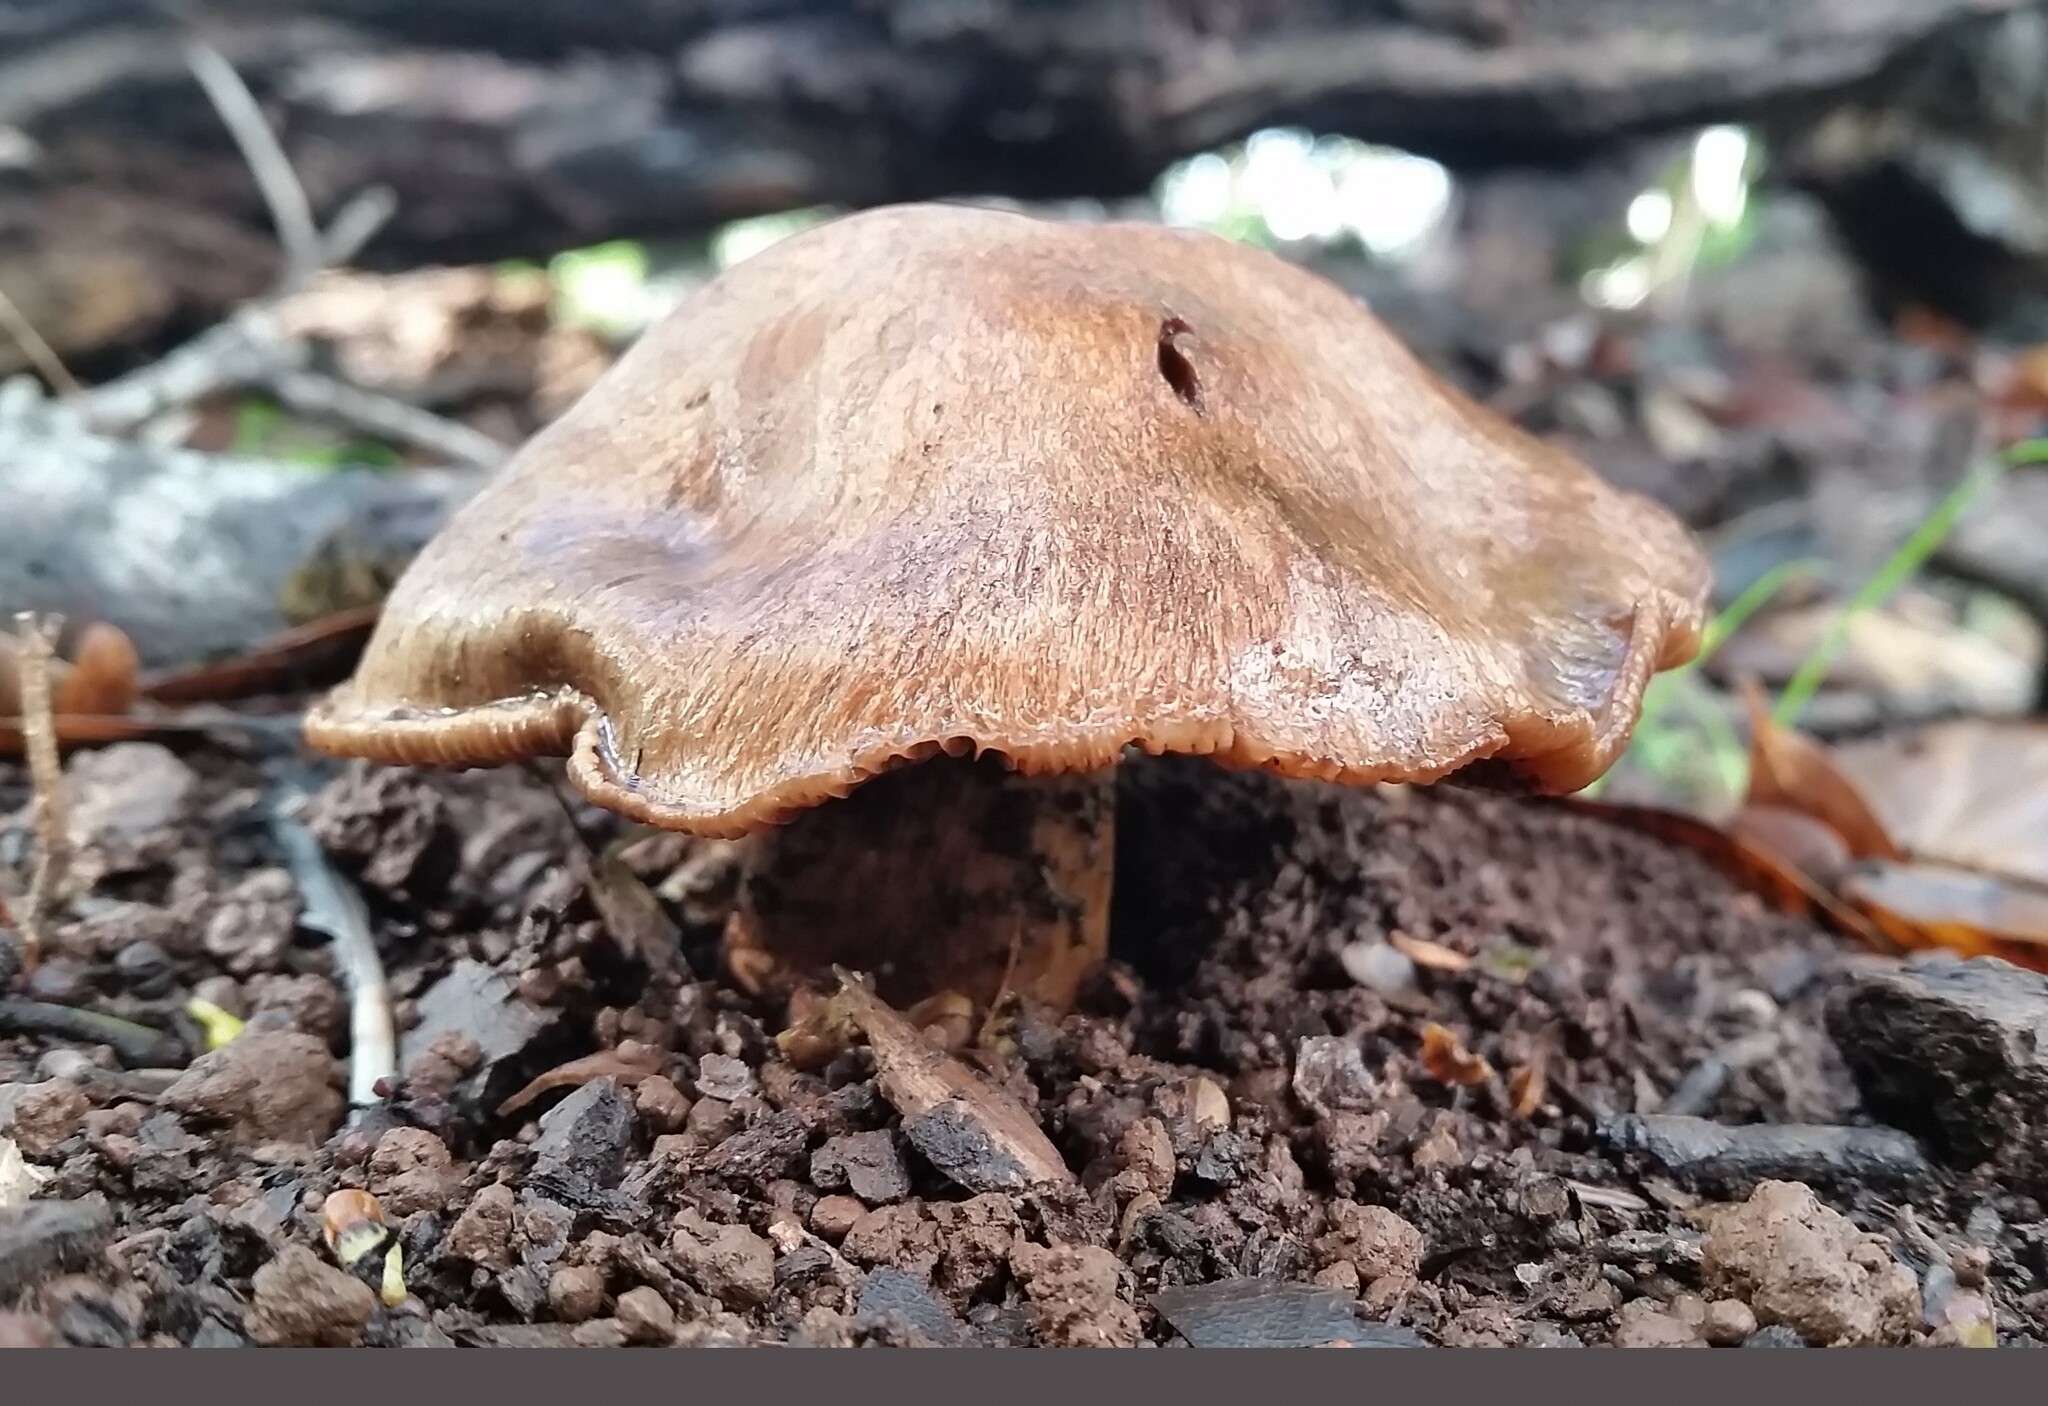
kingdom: Fungi
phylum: Basidiomycota
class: Agaricomycetes
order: Agaricales
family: Cortinariaceae
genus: Cortinarius
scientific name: Cortinarius ohlone
